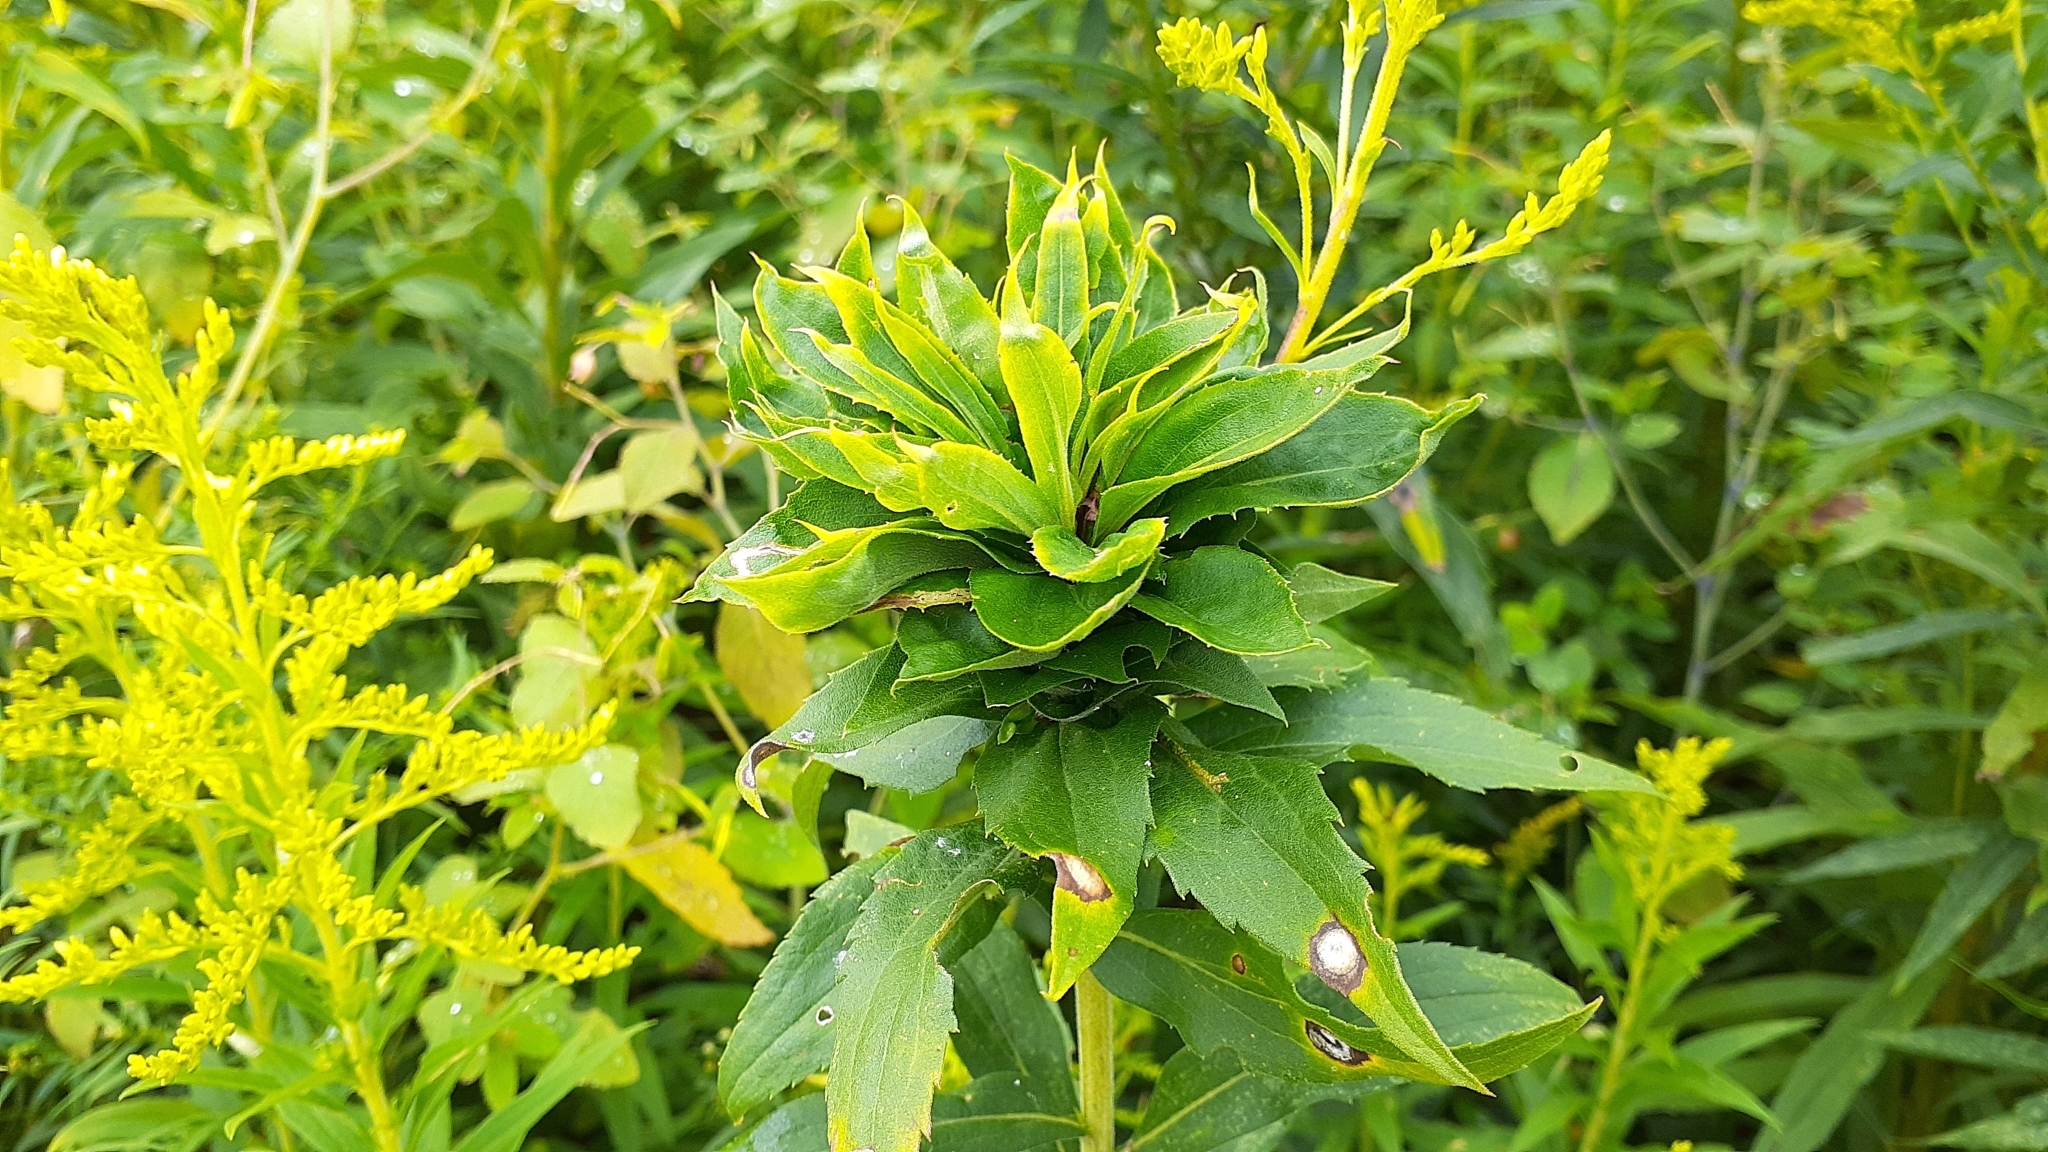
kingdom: Animalia
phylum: Arthropoda
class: Insecta
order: Diptera
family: Cecidomyiidae
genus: Rhopalomyia
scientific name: Rhopalomyia solidaginis
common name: Goldenrod bunch gall midge
